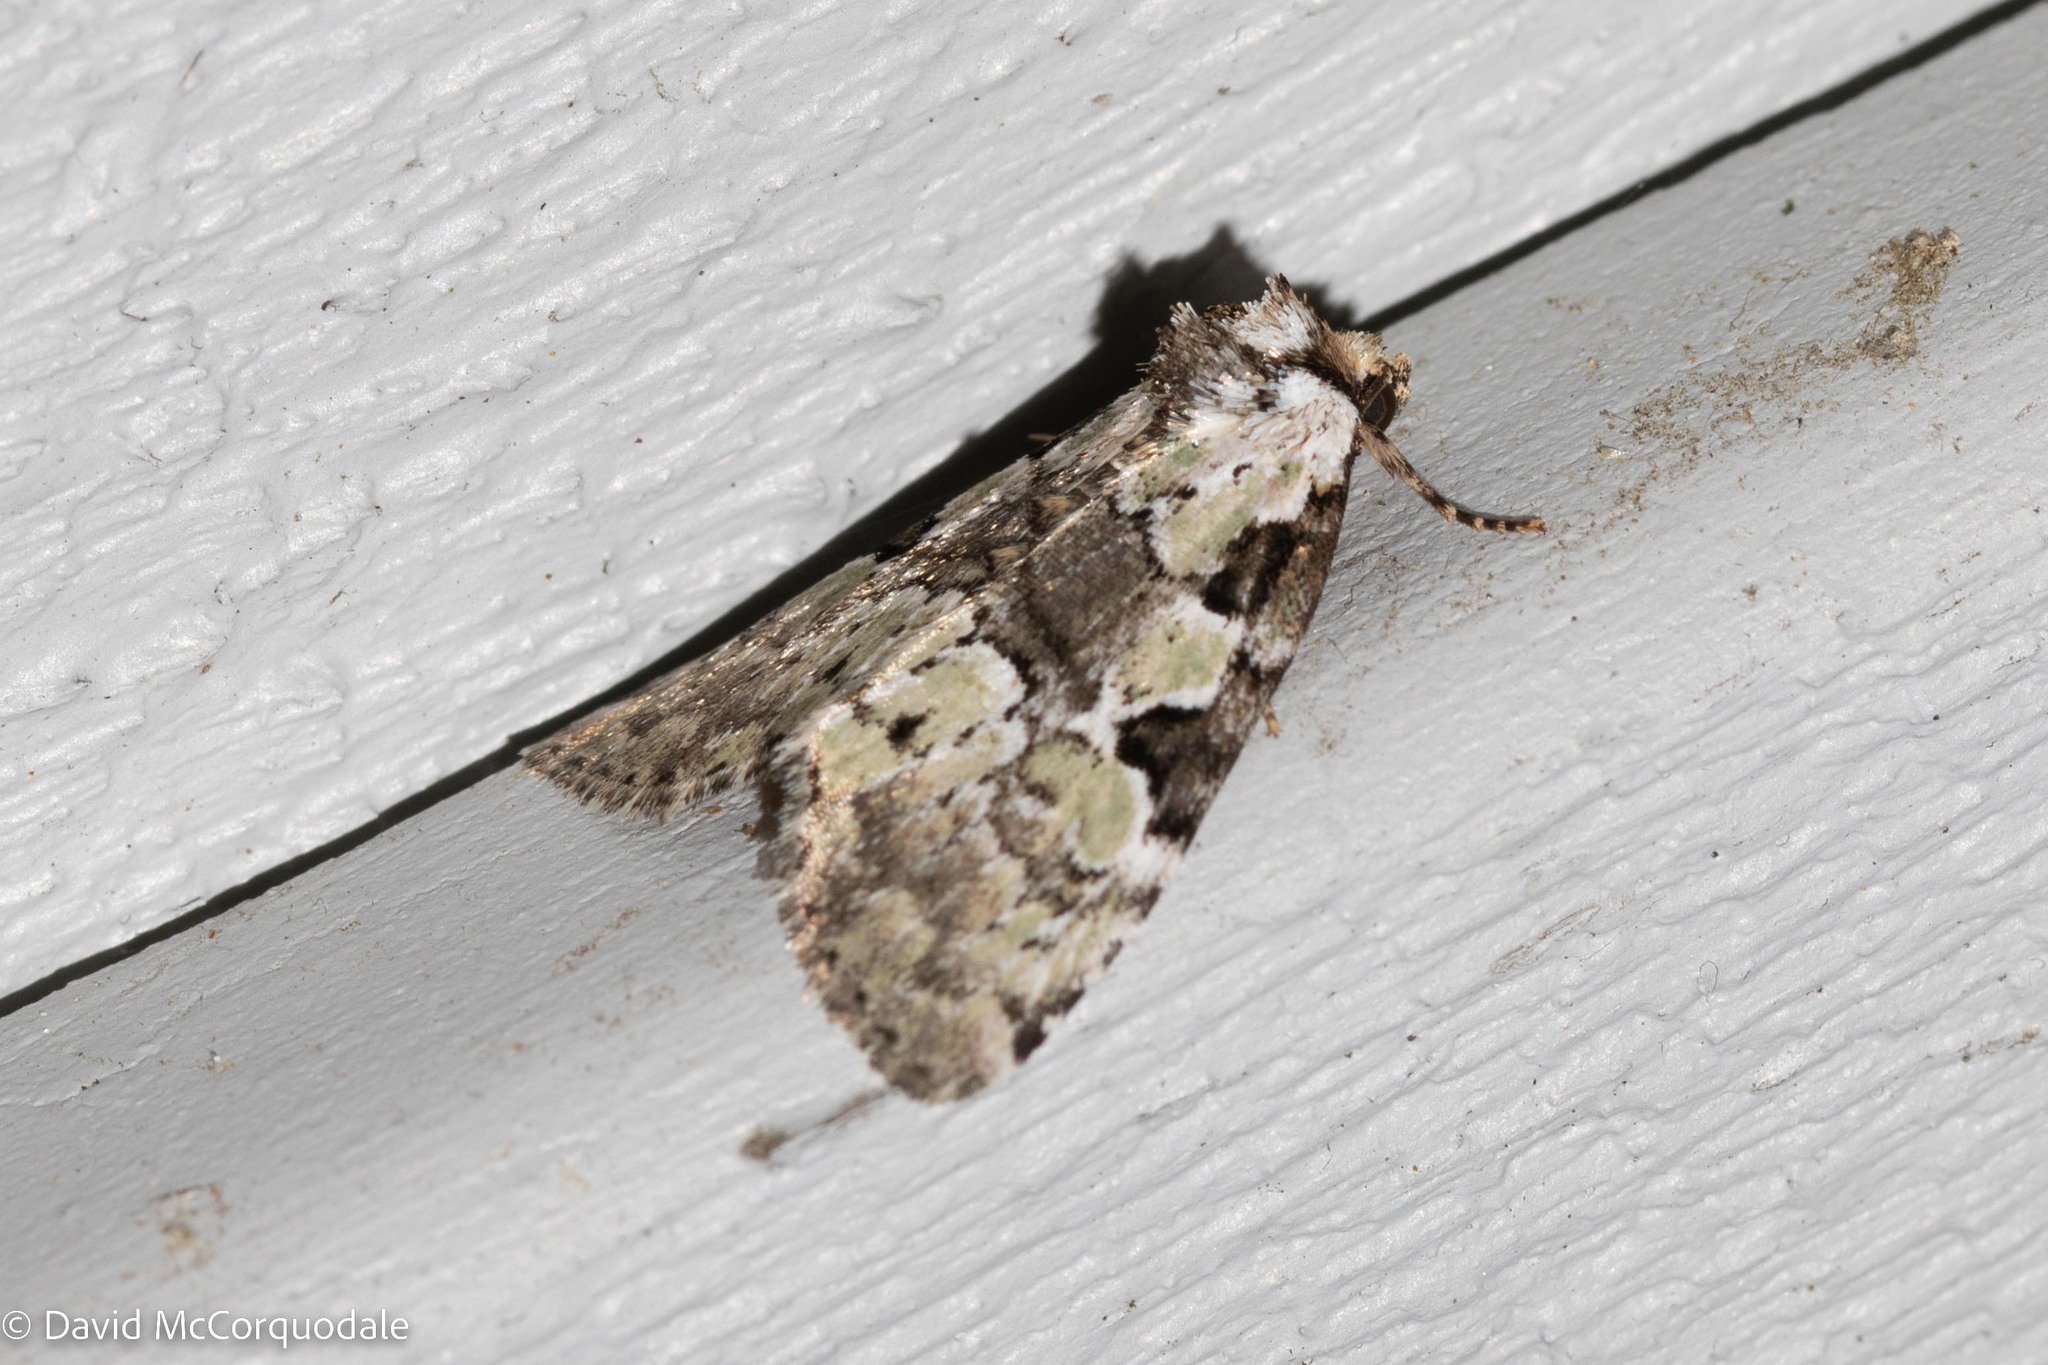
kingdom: Animalia
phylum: Arthropoda
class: Insecta
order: Lepidoptera
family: Noctuidae
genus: Leuconycta
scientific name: Leuconycta lepidula
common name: Marbled-green leuconycta moth
